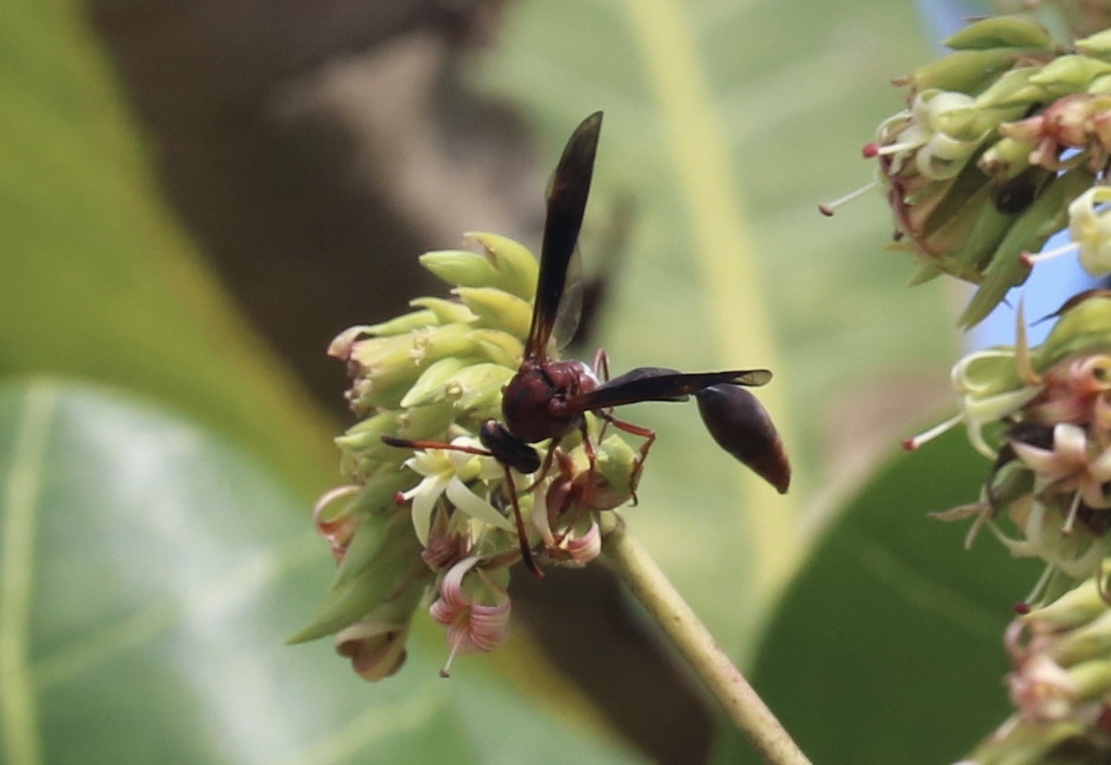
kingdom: Animalia
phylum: Arthropoda
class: Insecta
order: Hymenoptera
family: Eumenidae
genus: Zeta
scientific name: Zeta argillaceum
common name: Potter wasp
